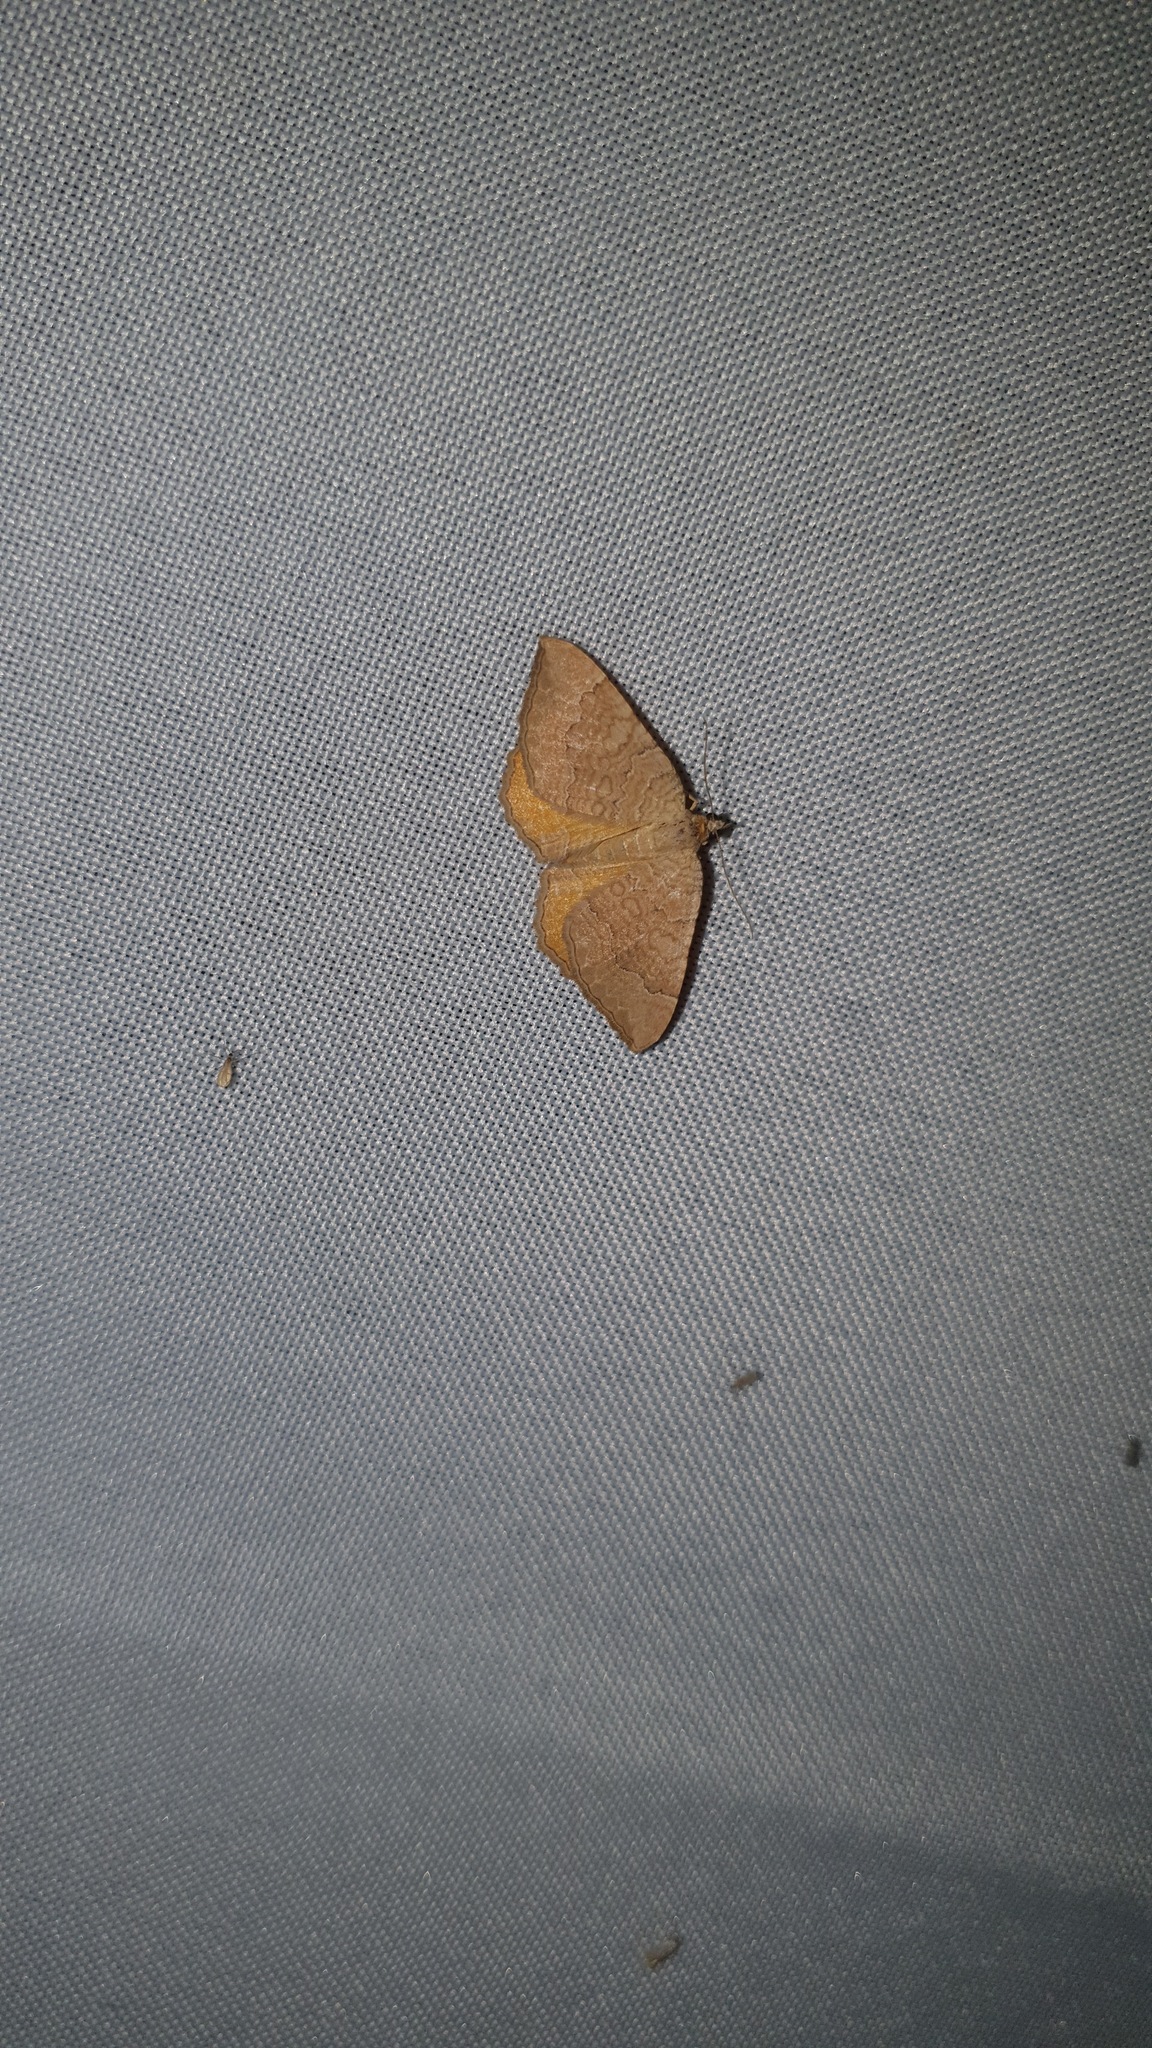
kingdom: Animalia
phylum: Arthropoda
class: Insecta
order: Lepidoptera
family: Geometridae
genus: Camptogramma
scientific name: Camptogramma bilineata
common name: Yellow shell
